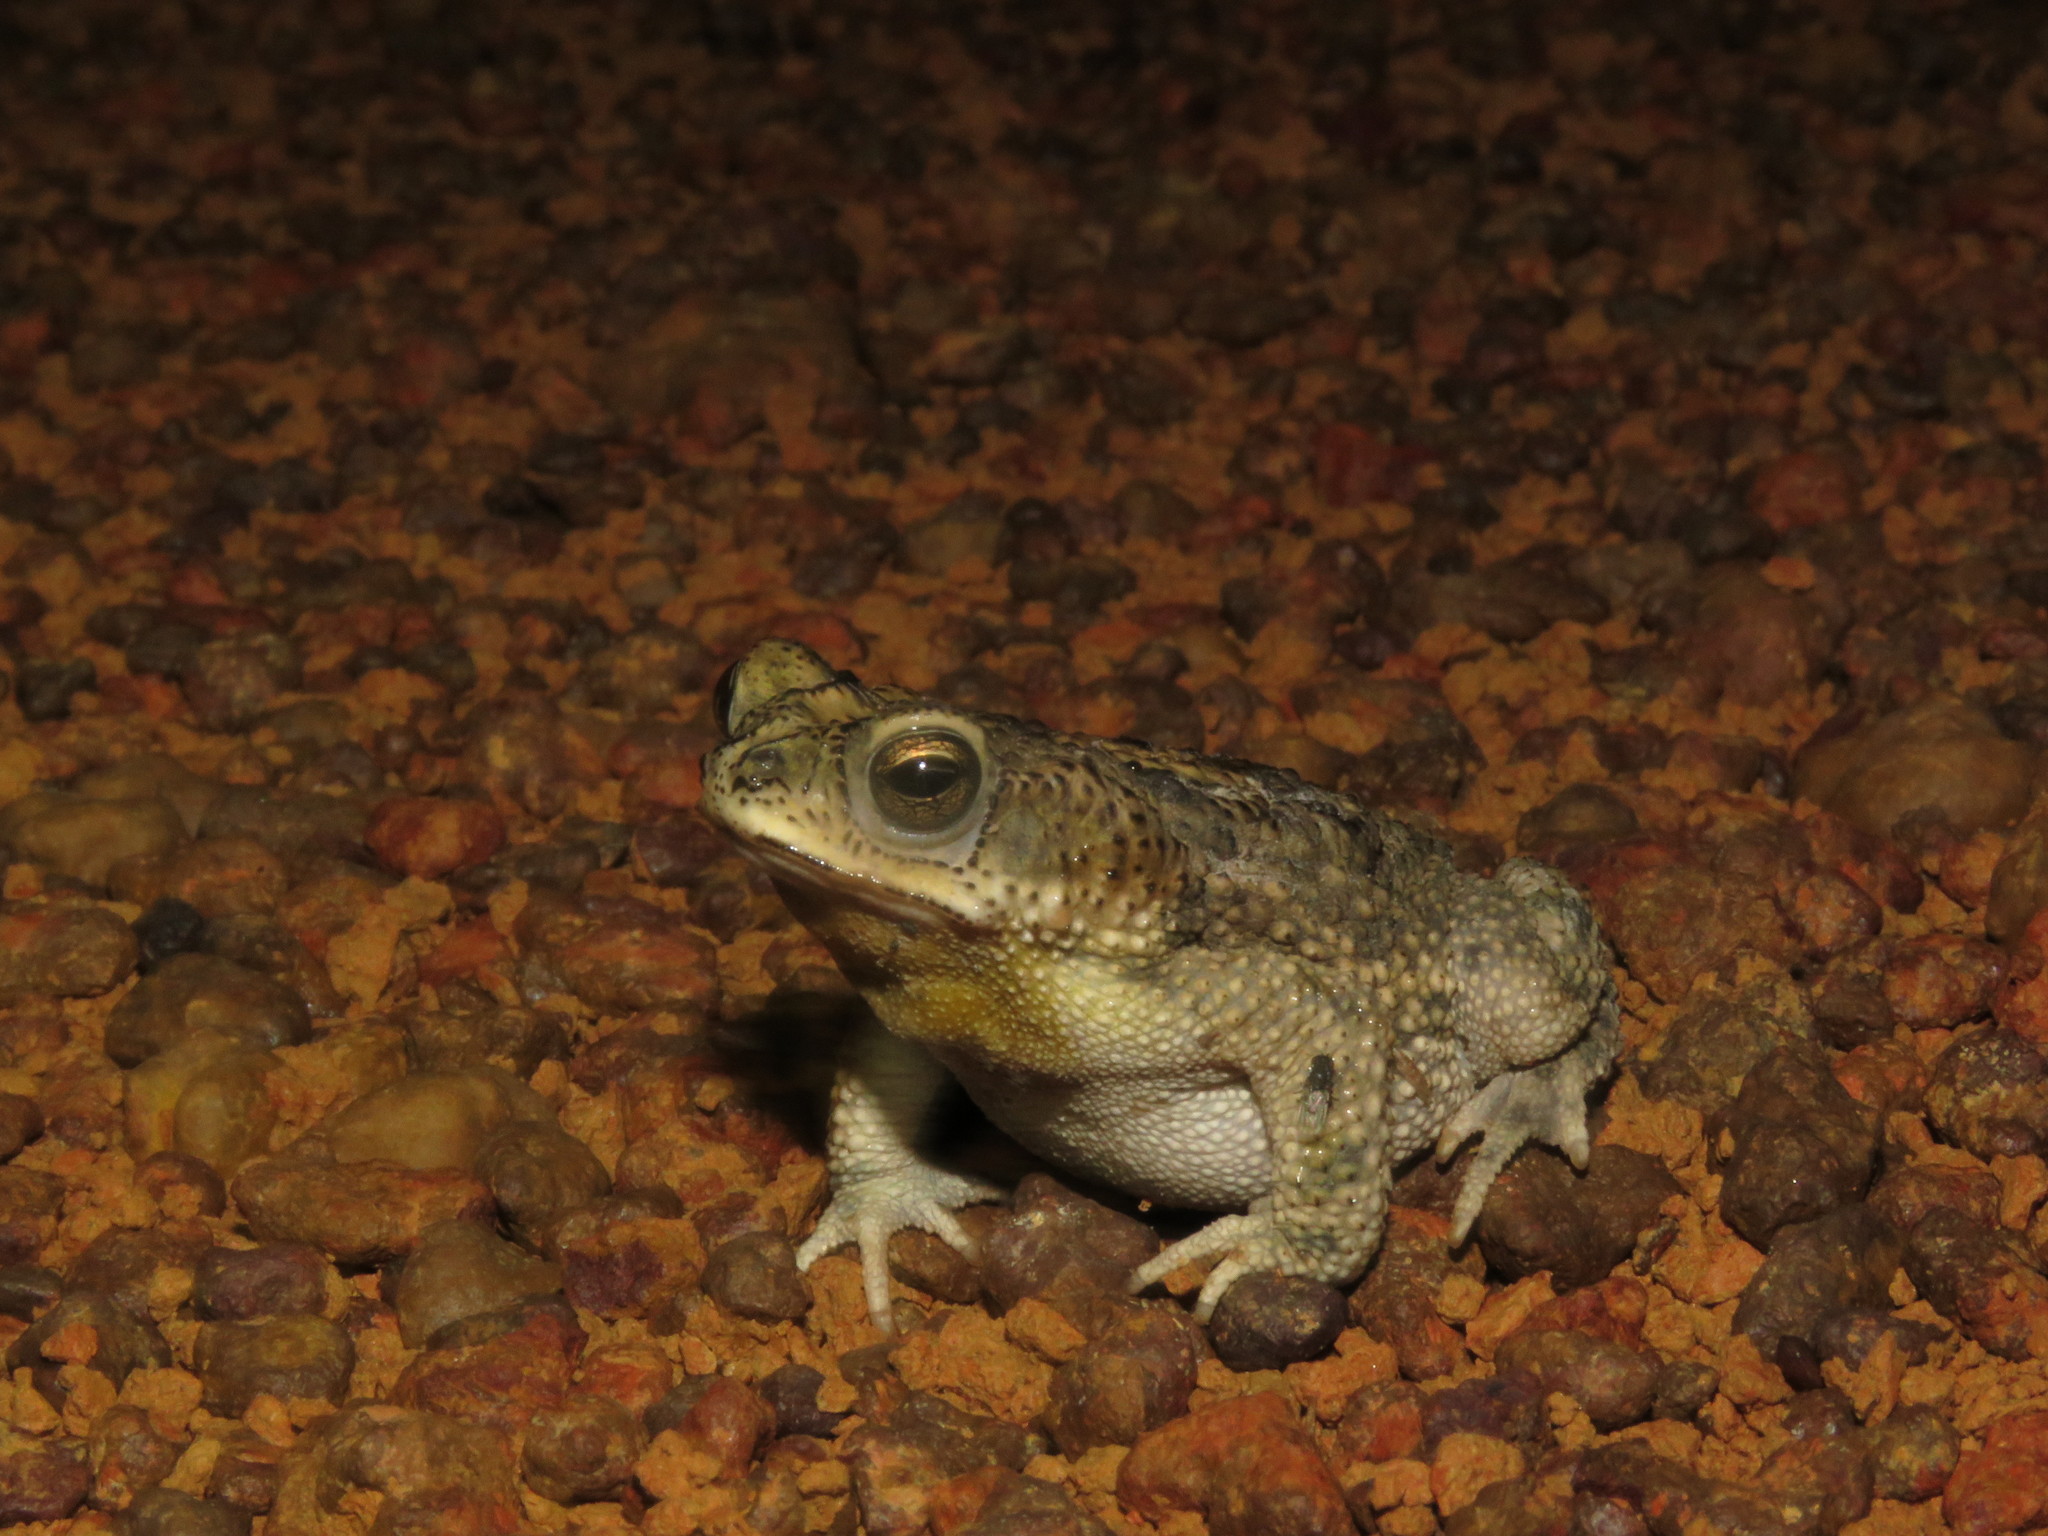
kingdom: Animalia
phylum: Chordata
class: Amphibia
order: Anura
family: Bufonidae
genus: Rhinella
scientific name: Rhinella major
